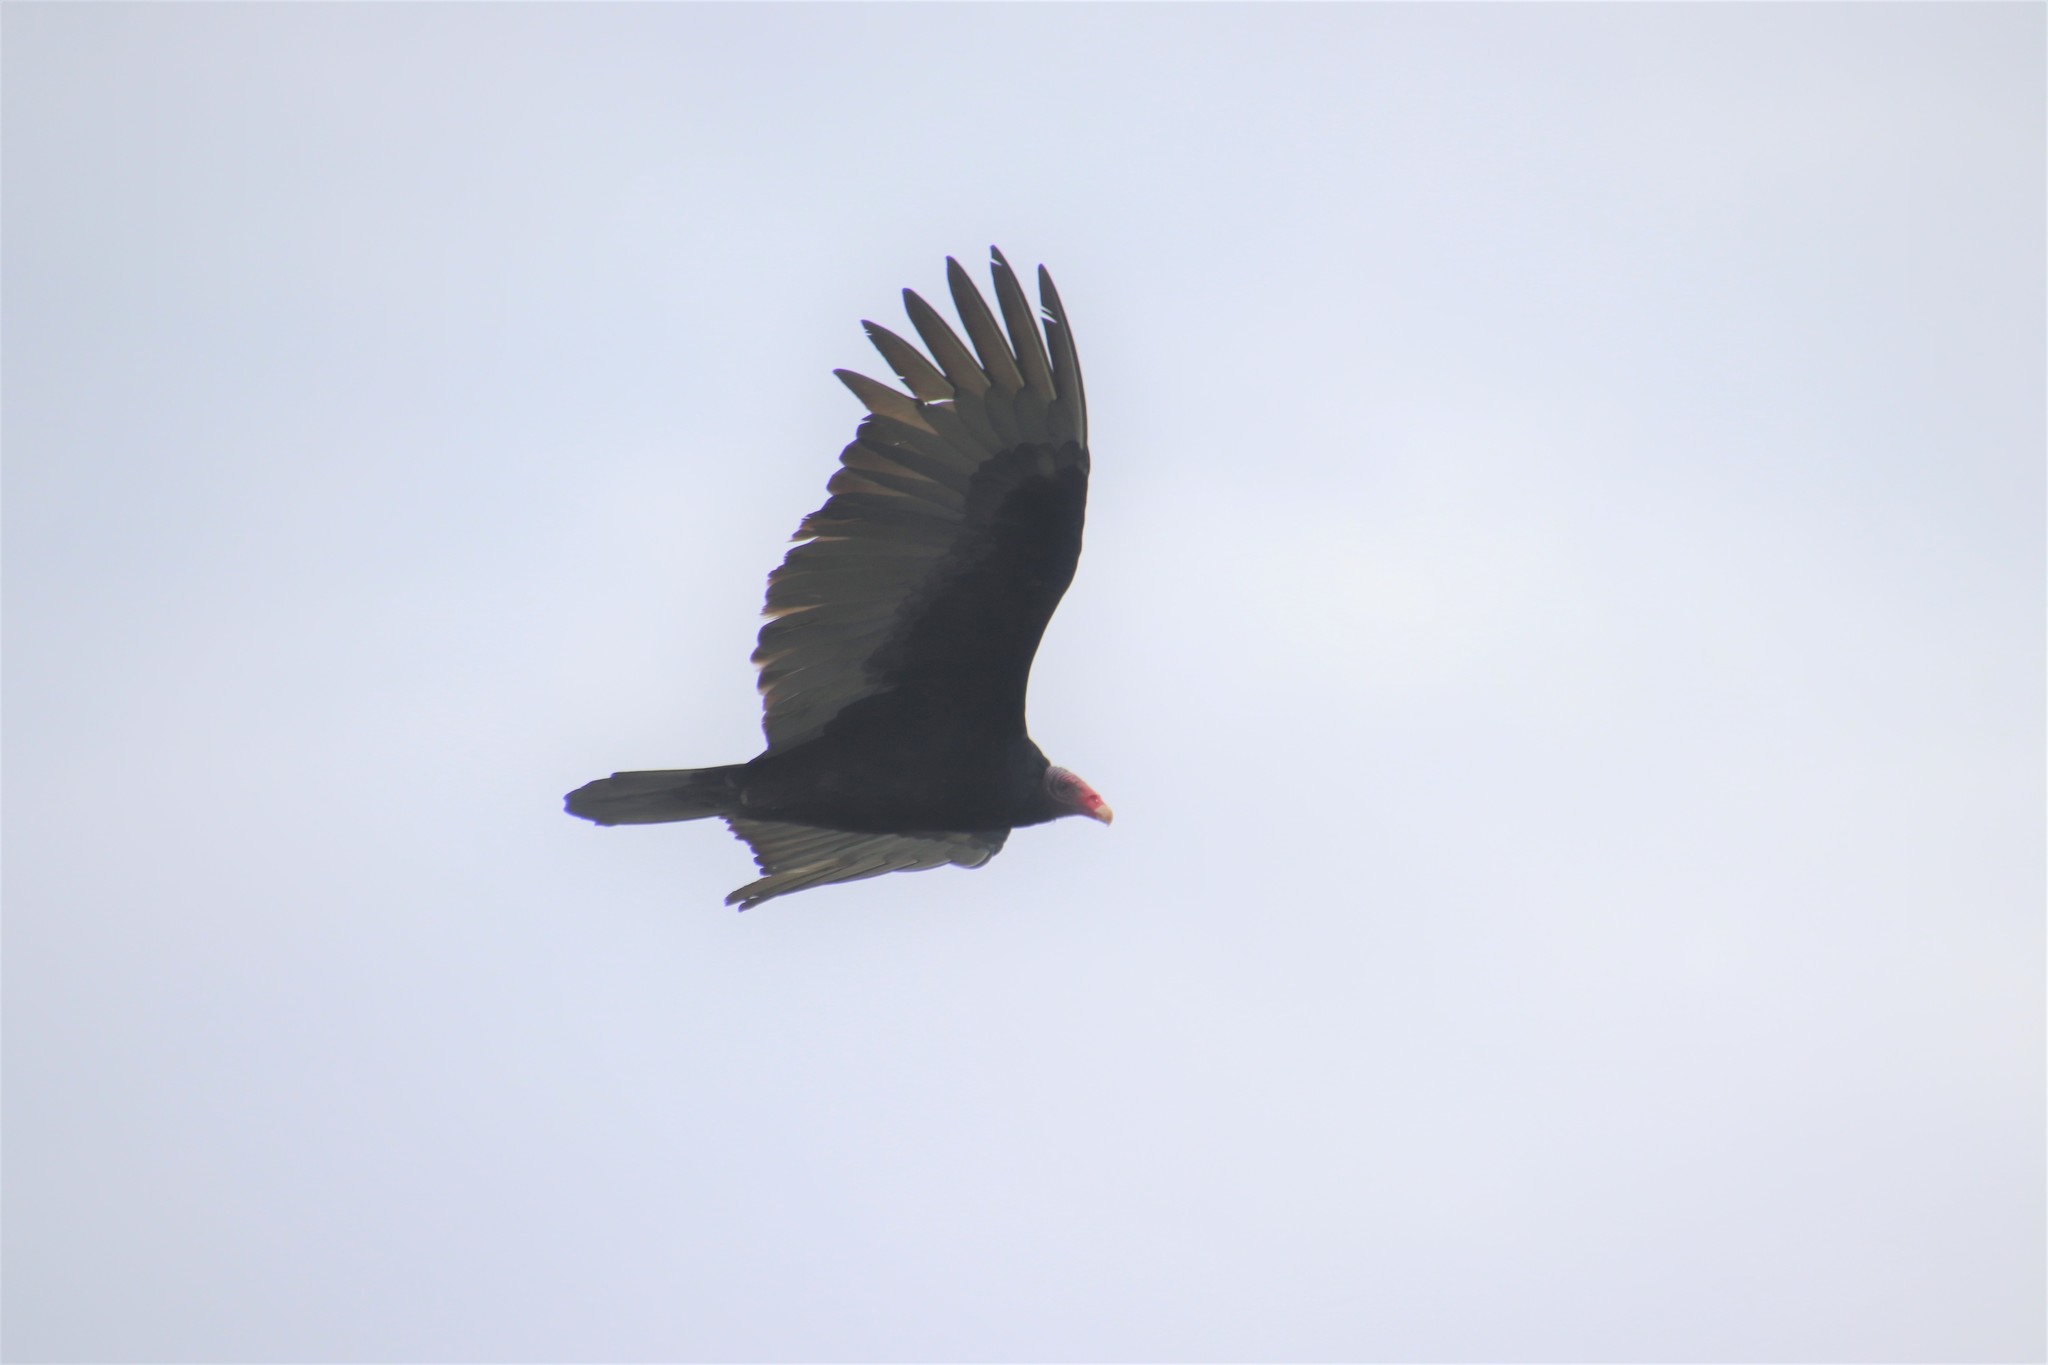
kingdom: Animalia
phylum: Chordata
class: Aves
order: Accipitriformes
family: Cathartidae
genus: Cathartes
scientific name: Cathartes aura
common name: Turkey vulture
